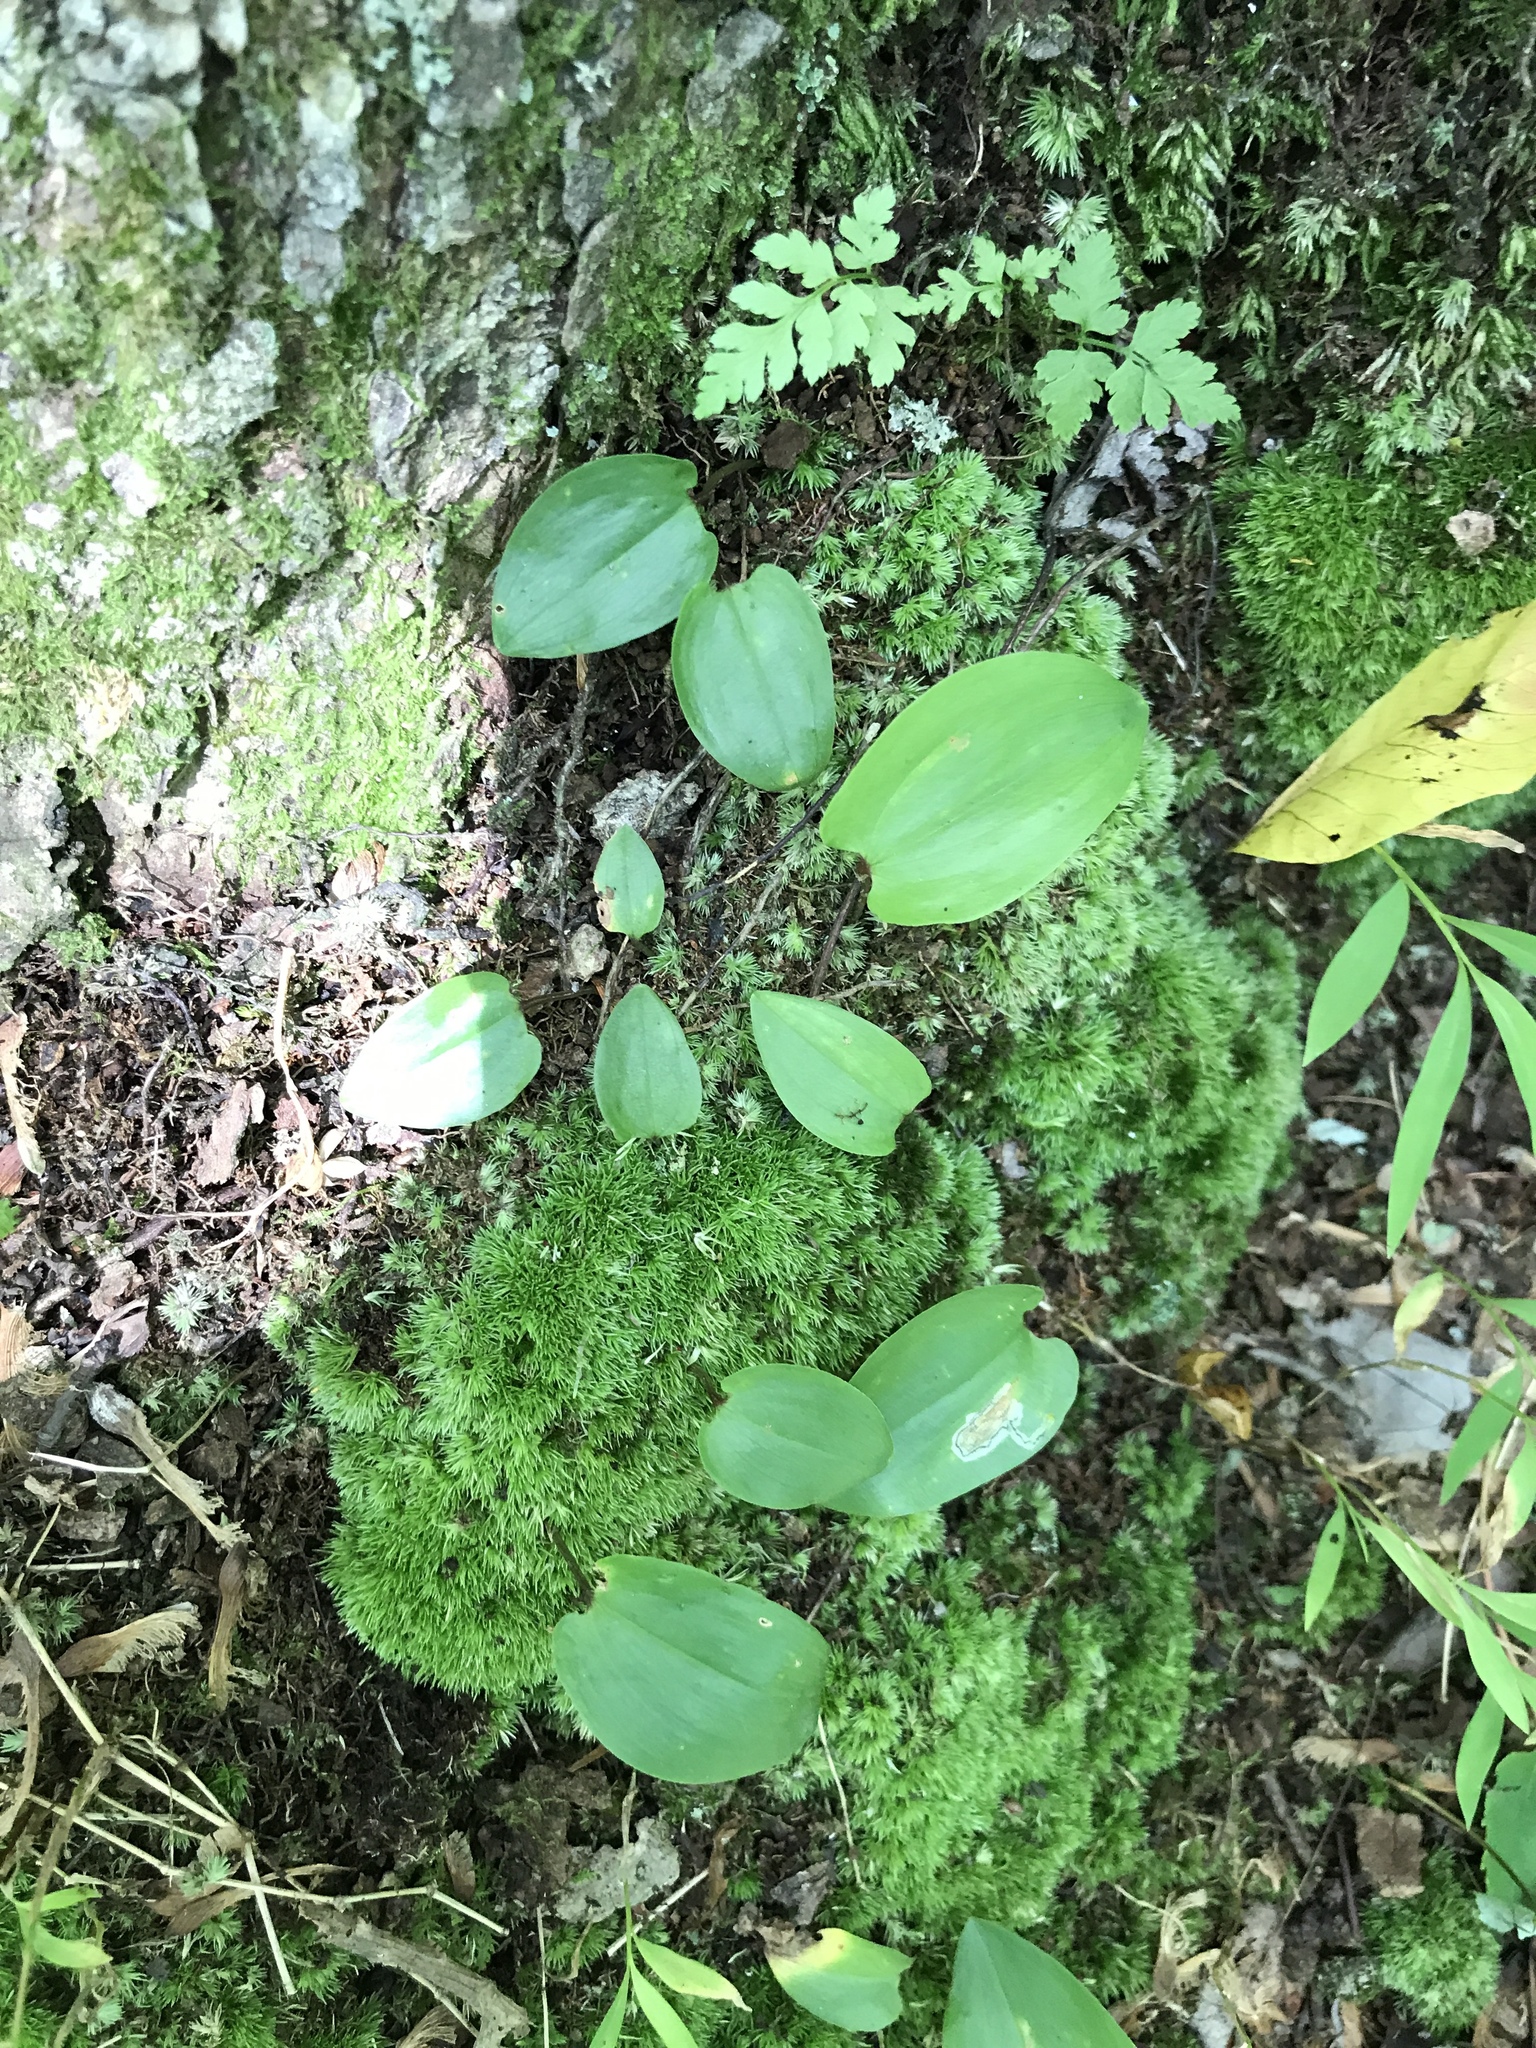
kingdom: Plantae
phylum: Tracheophyta
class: Liliopsida
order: Asparagales
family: Asparagaceae
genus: Maianthemum
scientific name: Maianthemum canadense
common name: False lily-of-the-valley
